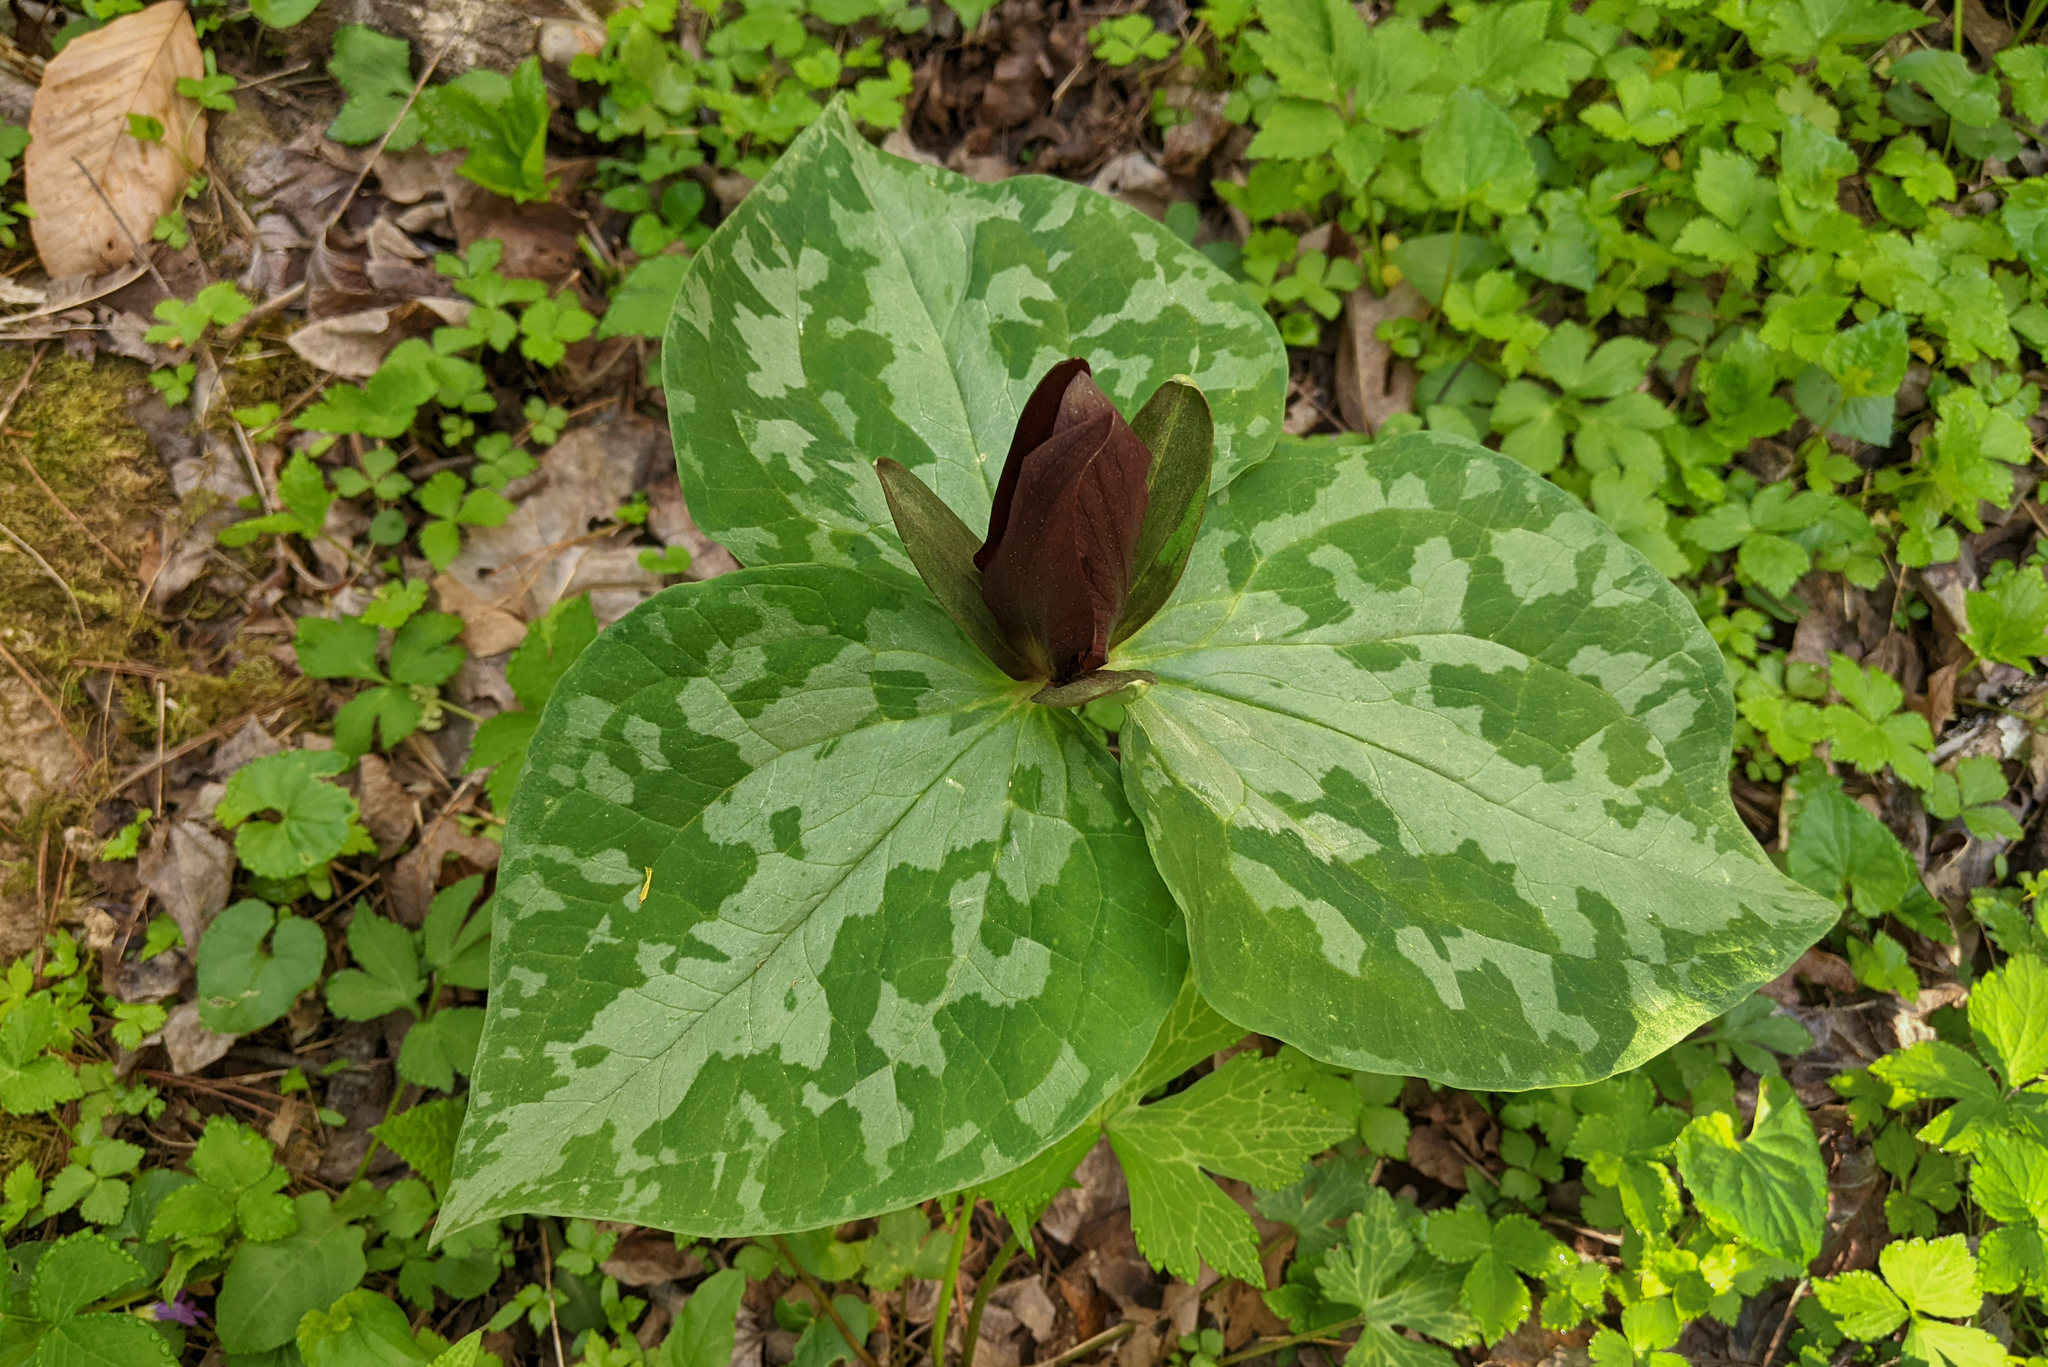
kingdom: Plantae
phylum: Tracheophyta
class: Liliopsida
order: Liliales
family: Melanthiaceae
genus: Trillium
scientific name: Trillium cuneatum
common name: Cuneate trillium
